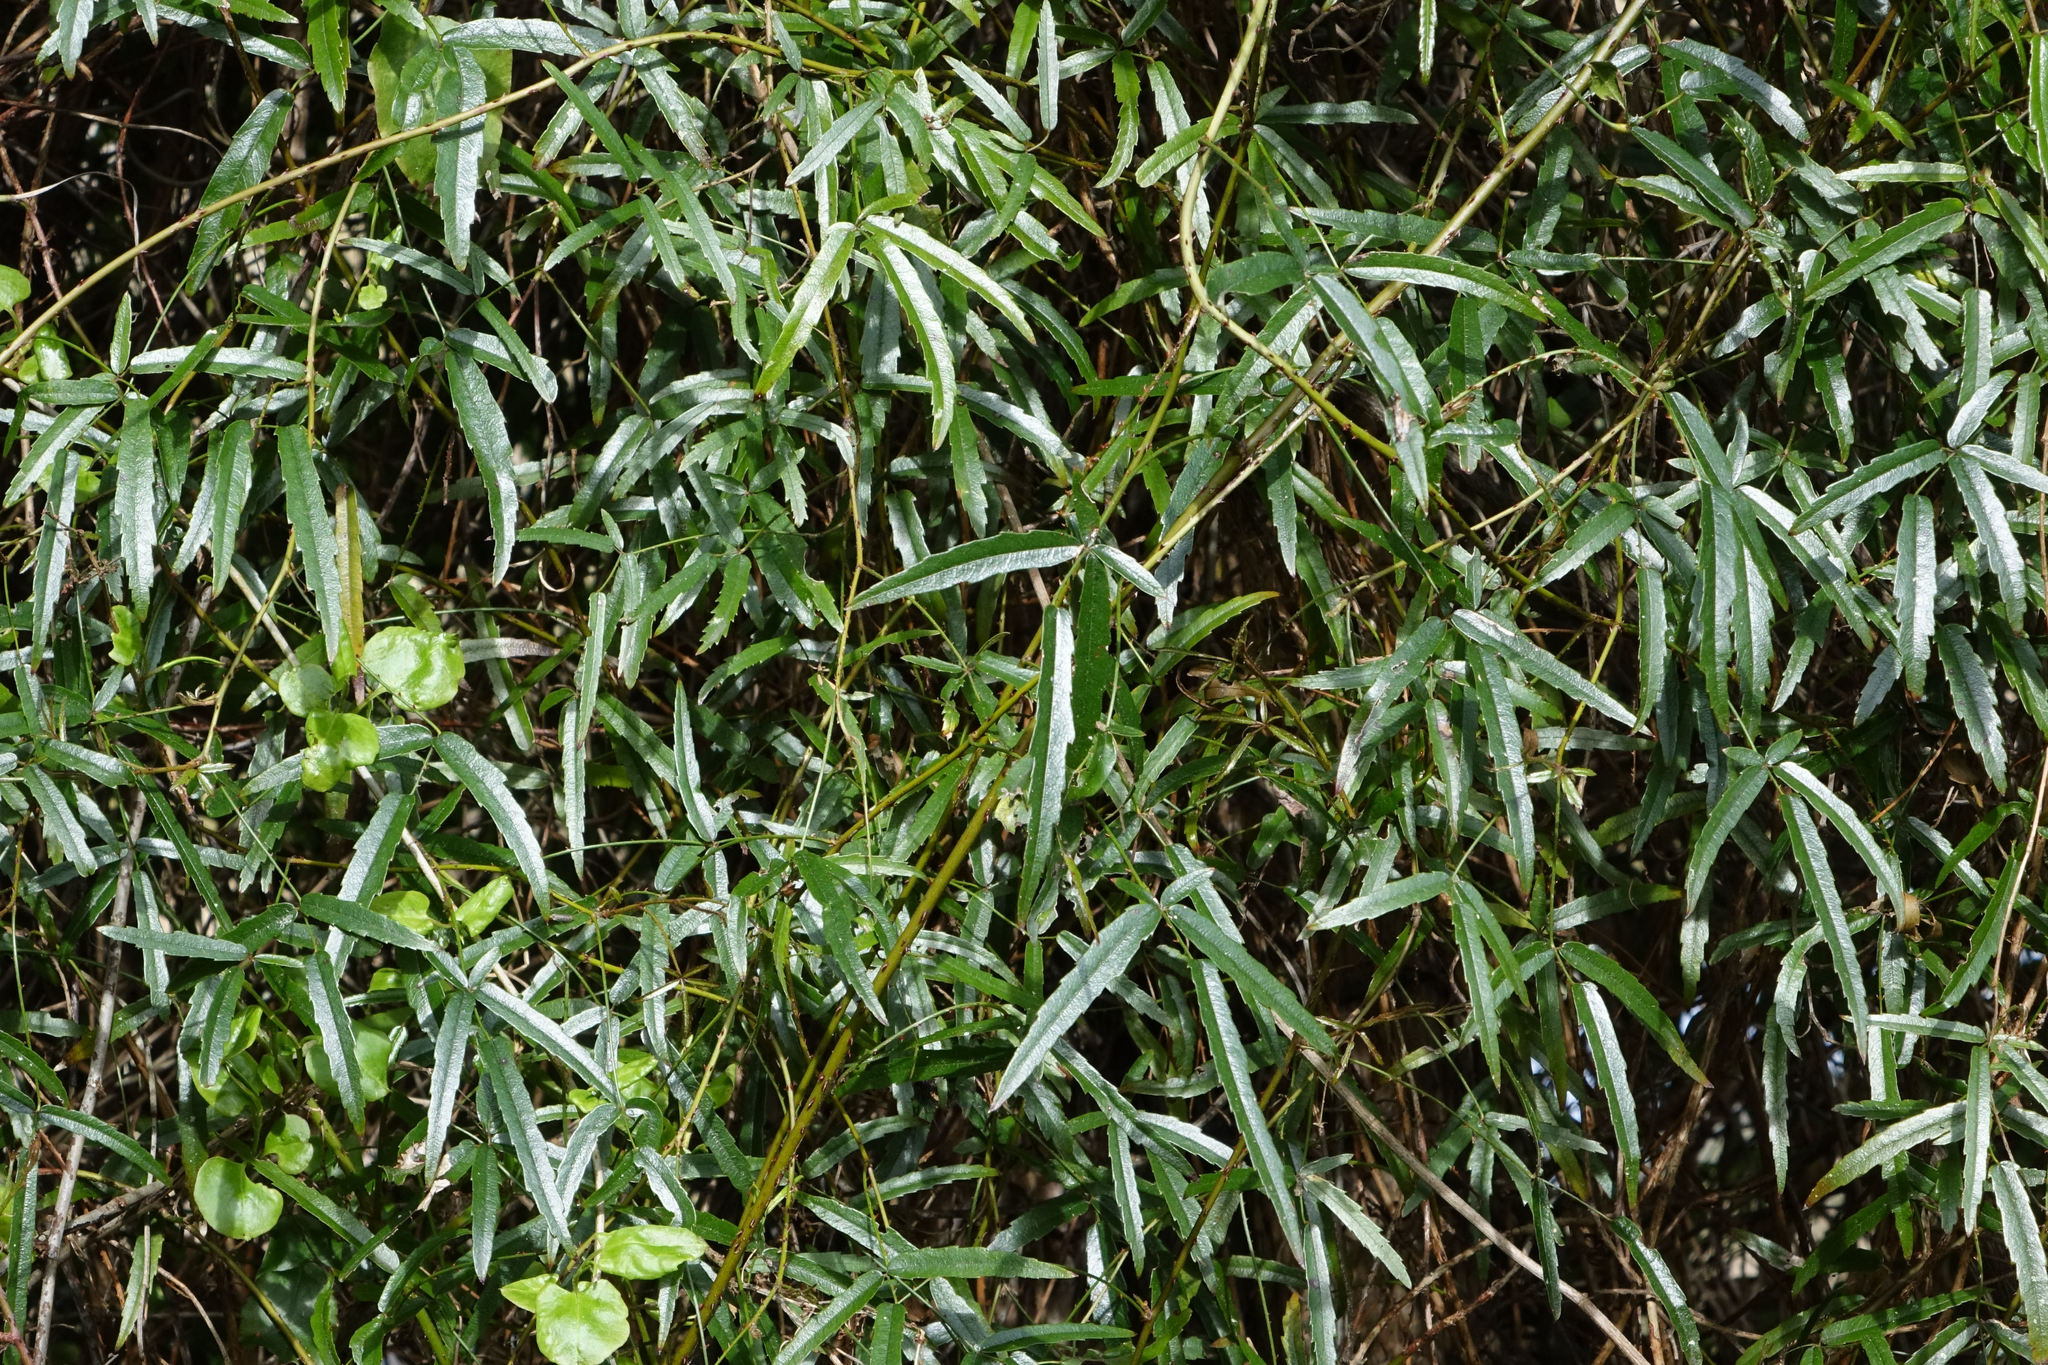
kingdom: Plantae
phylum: Tracheophyta
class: Magnoliopsida
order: Rosales
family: Rosaceae
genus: Rubus
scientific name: Rubus schmidelioides
